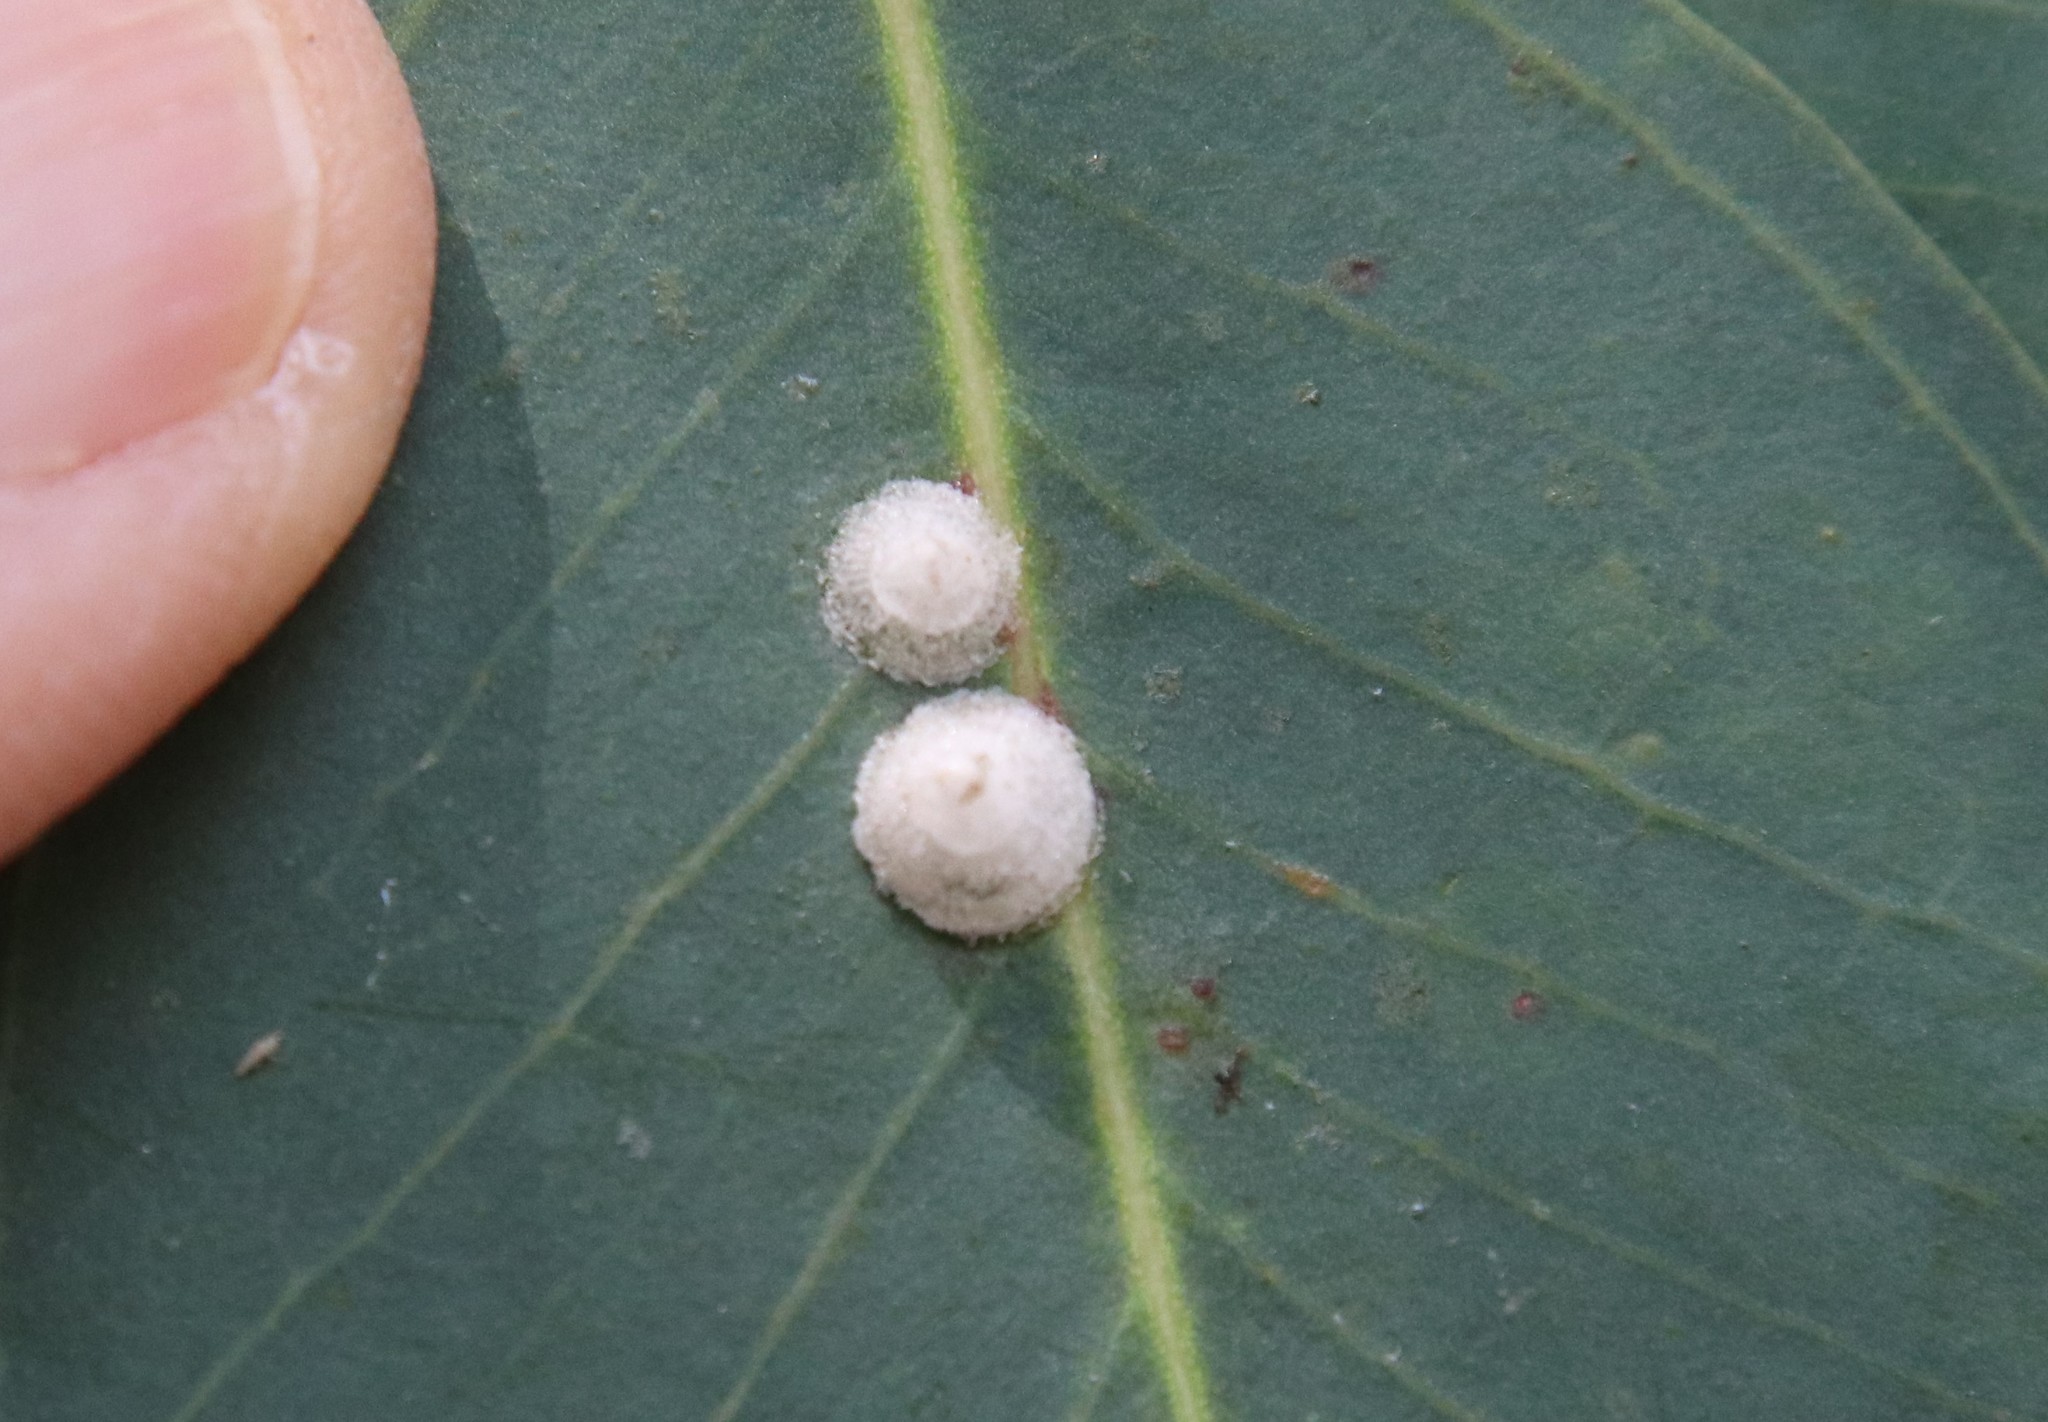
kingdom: Animalia
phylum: Arthropoda
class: Insecta
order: Hemiptera
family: Aphalaridae
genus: Glycaspis
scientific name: Glycaspis brimblecombei
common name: Red gum lerp psyllid
